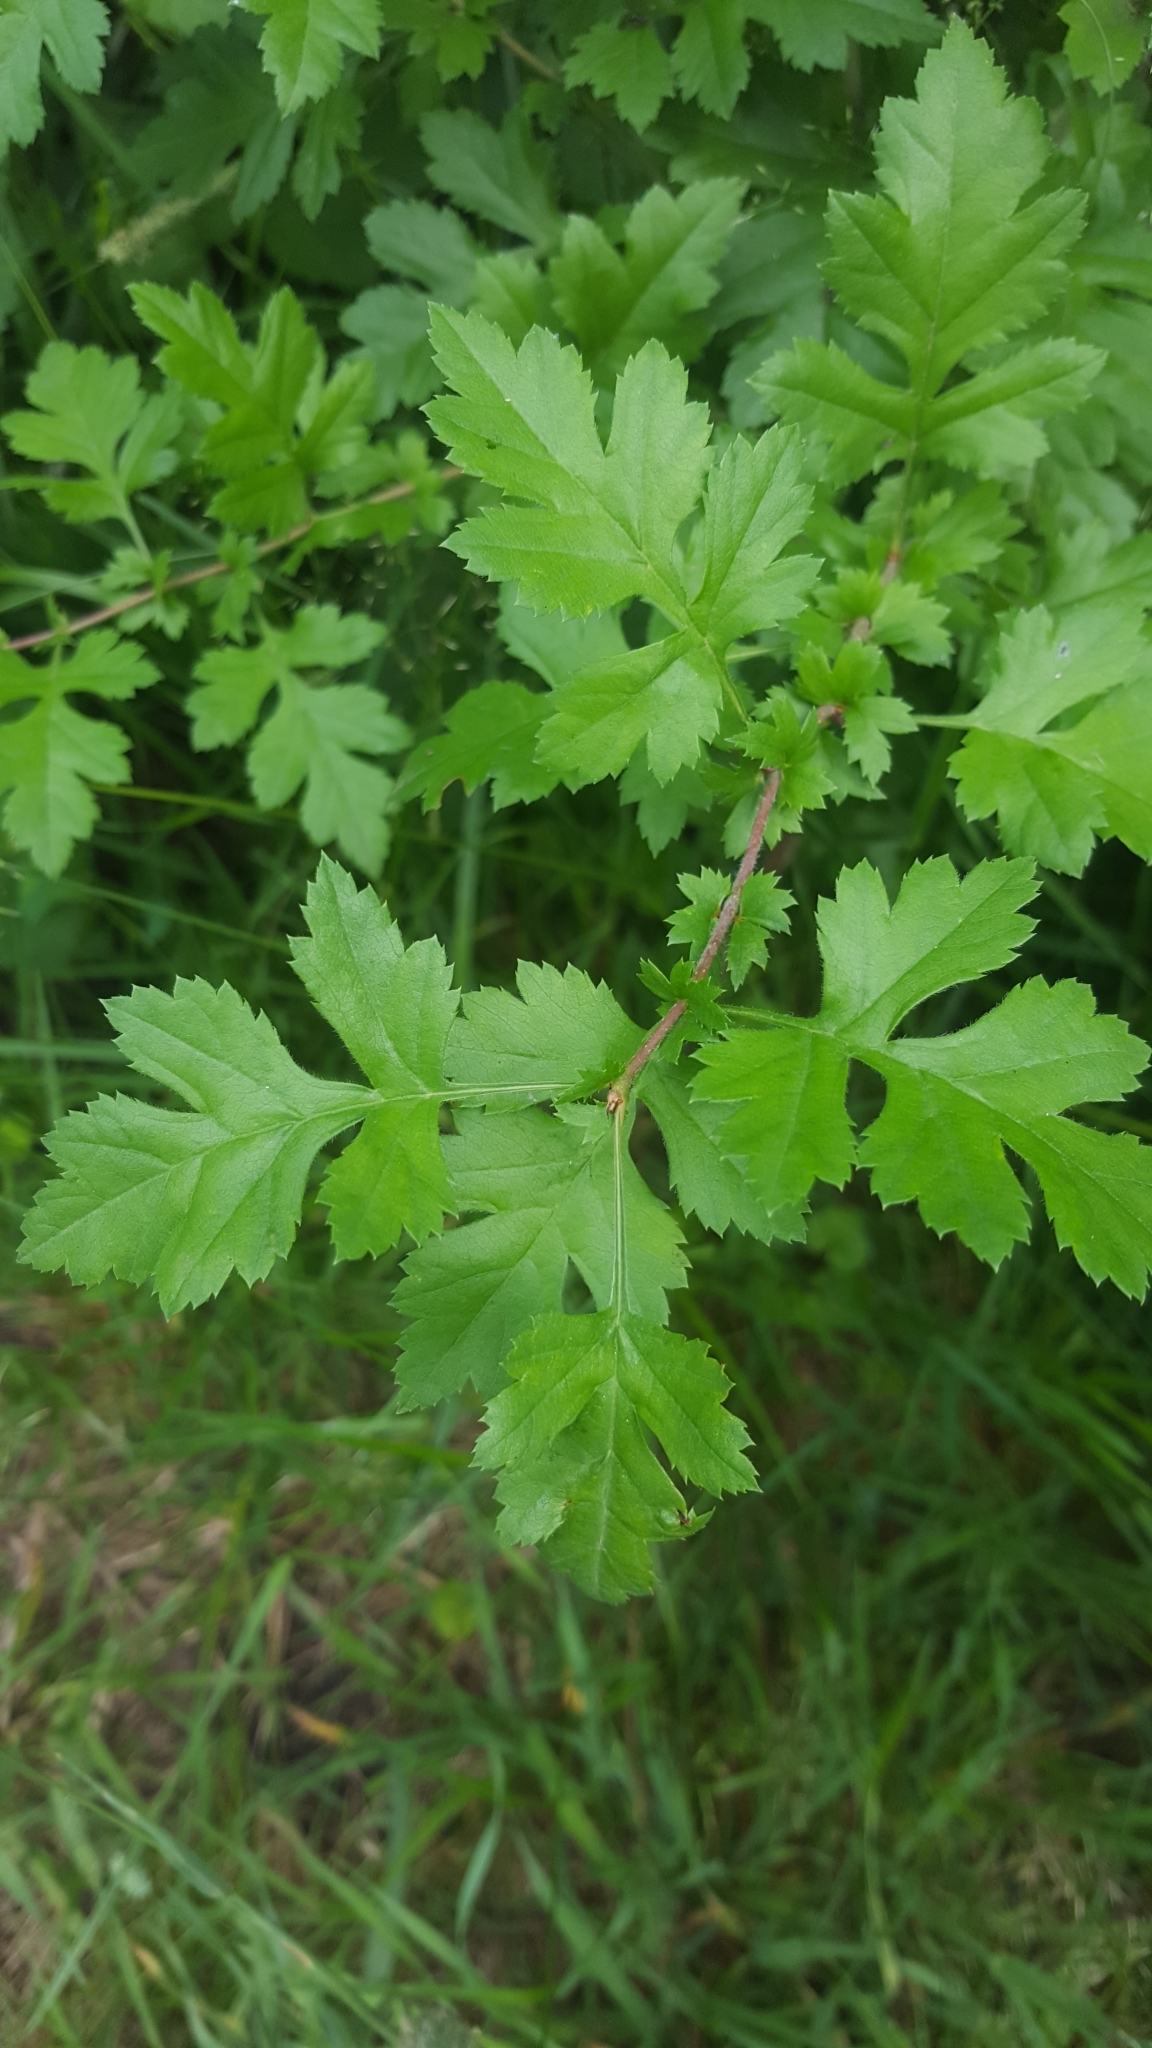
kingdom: Plantae
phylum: Tracheophyta
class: Magnoliopsida
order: Rosales
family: Rosaceae
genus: Crataegus
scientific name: Crataegus monogyna
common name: Hawthorn
